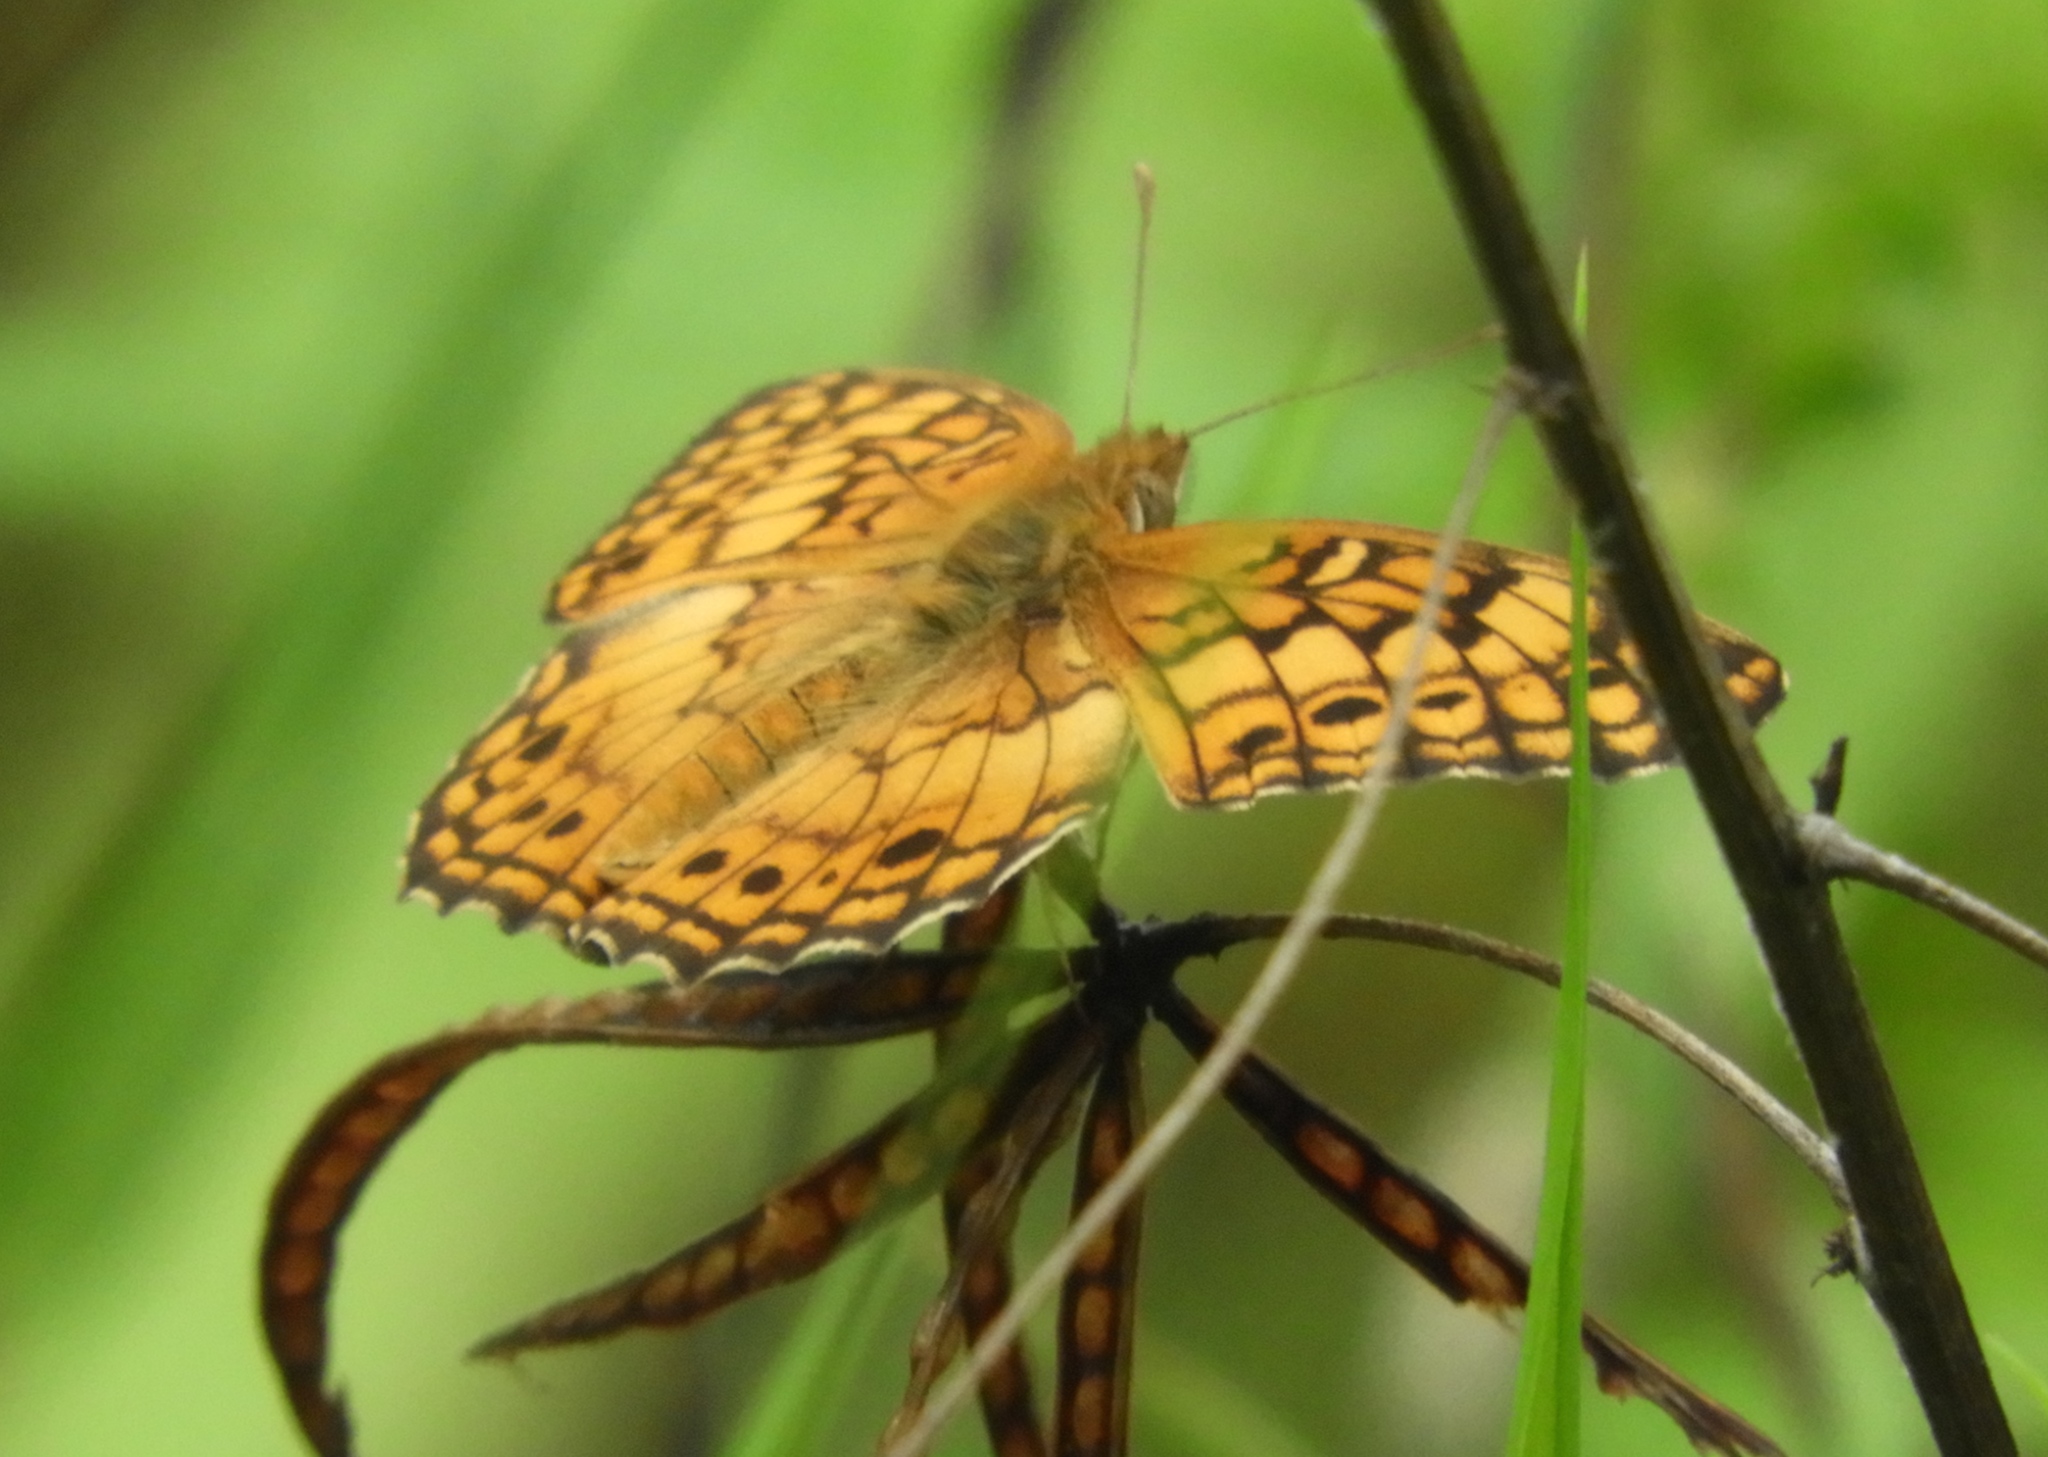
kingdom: Animalia
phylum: Arthropoda
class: Insecta
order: Lepidoptera
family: Nymphalidae
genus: Euptoieta
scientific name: Euptoieta claudia
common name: Variegated fritillary
